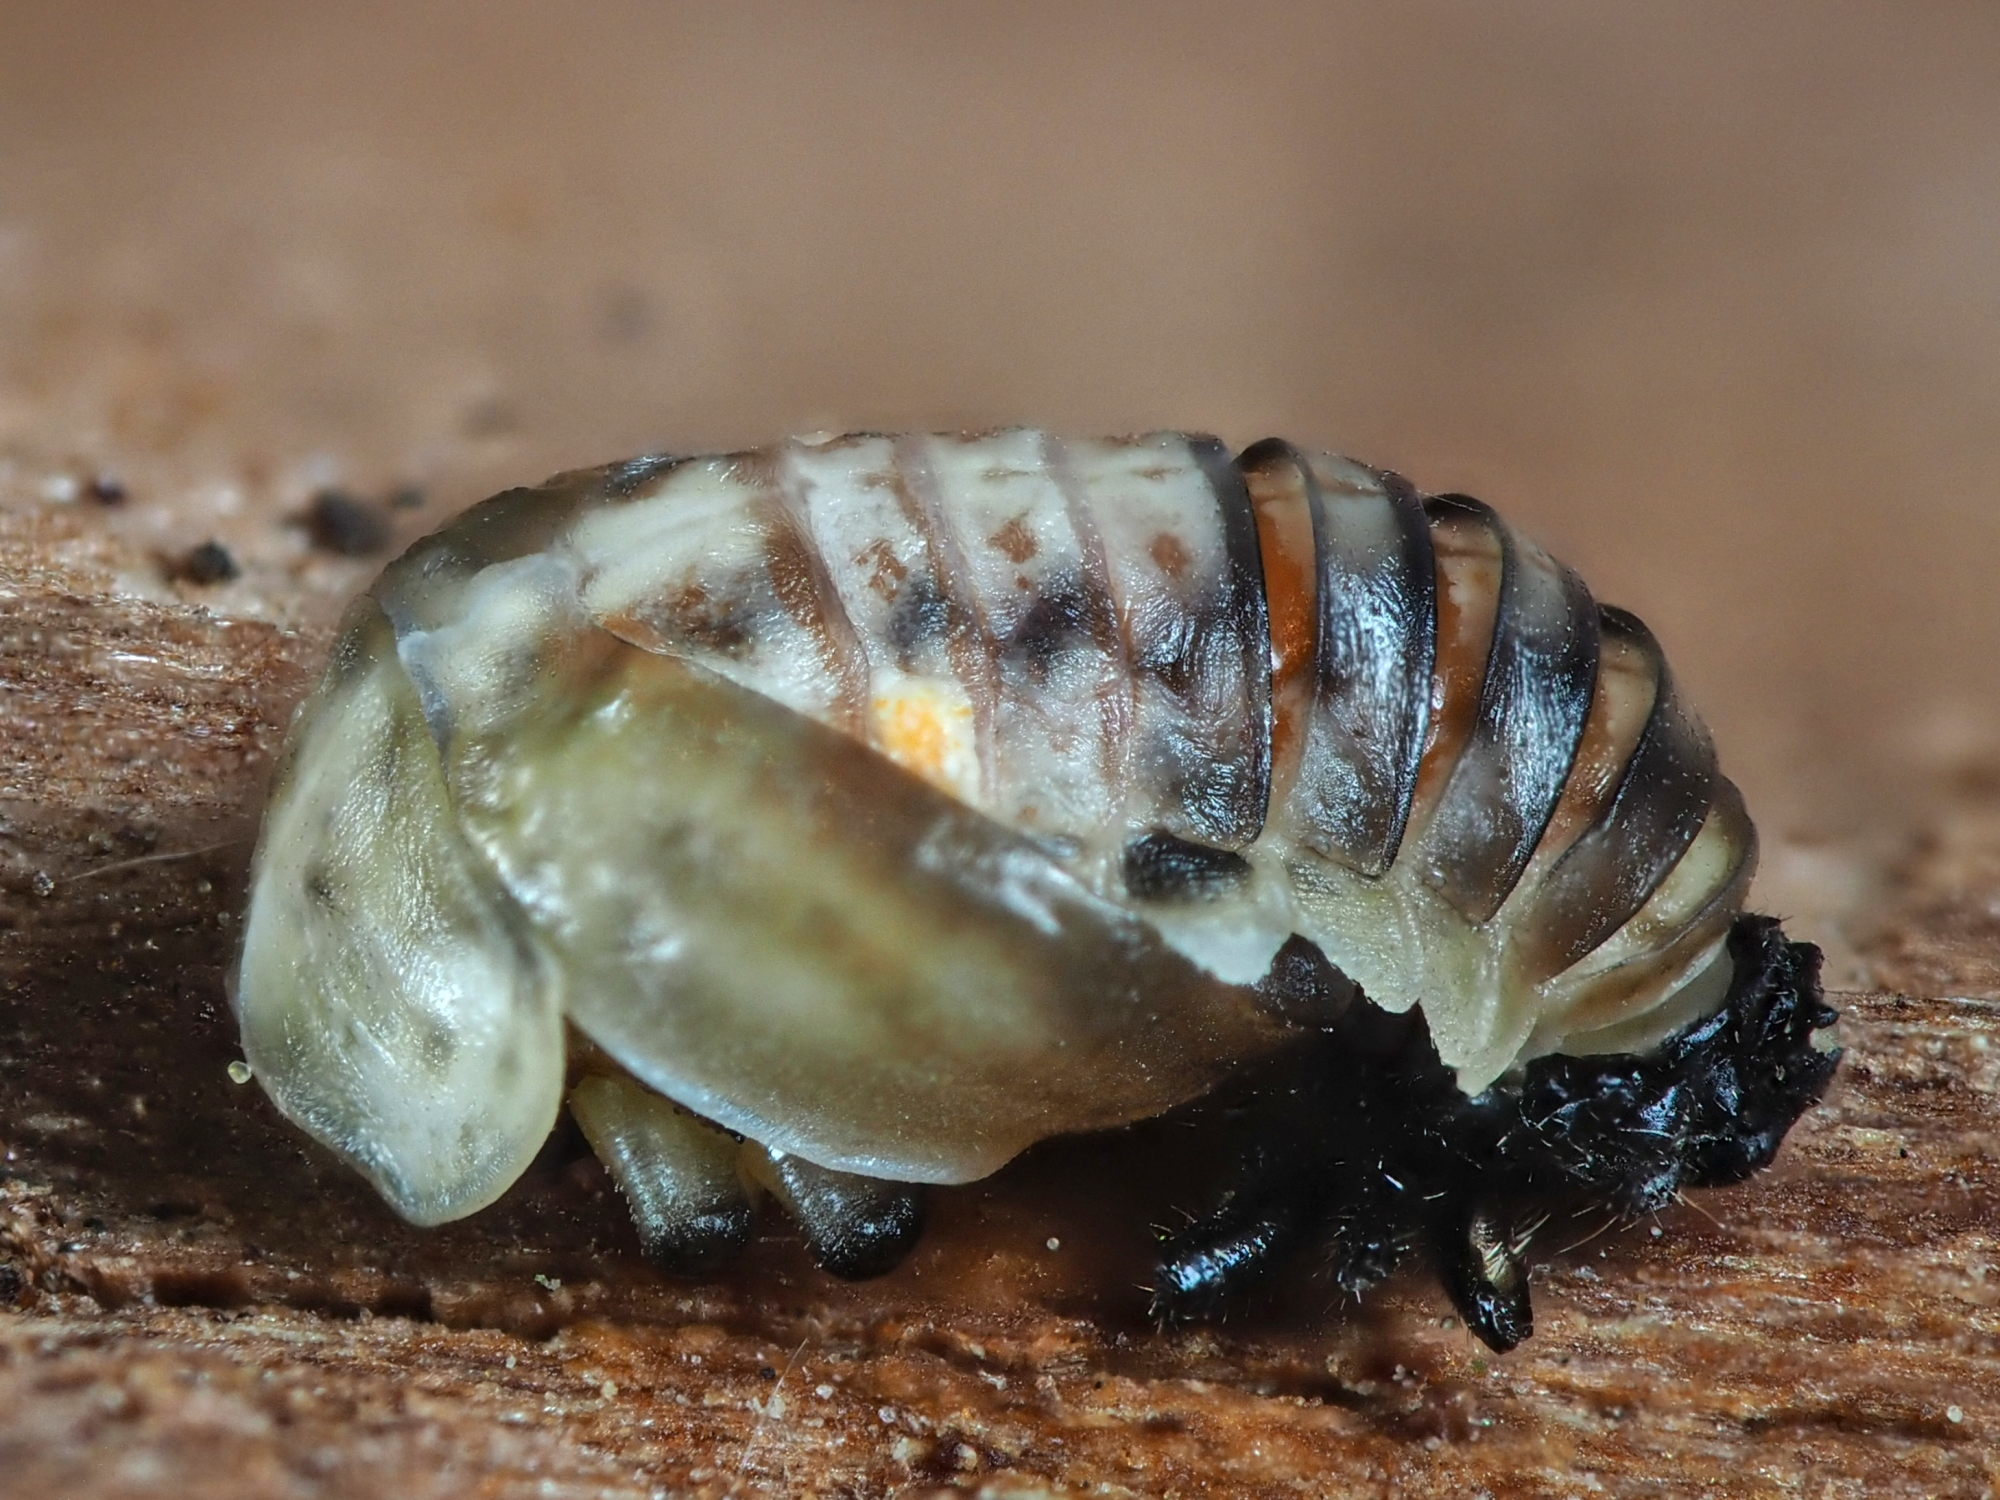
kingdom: Animalia
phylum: Arthropoda
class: Insecta
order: Coleoptera
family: Coccinellidae
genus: Myrrha
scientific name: Myrrha octodecimguttata
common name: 18-spot ladybird
